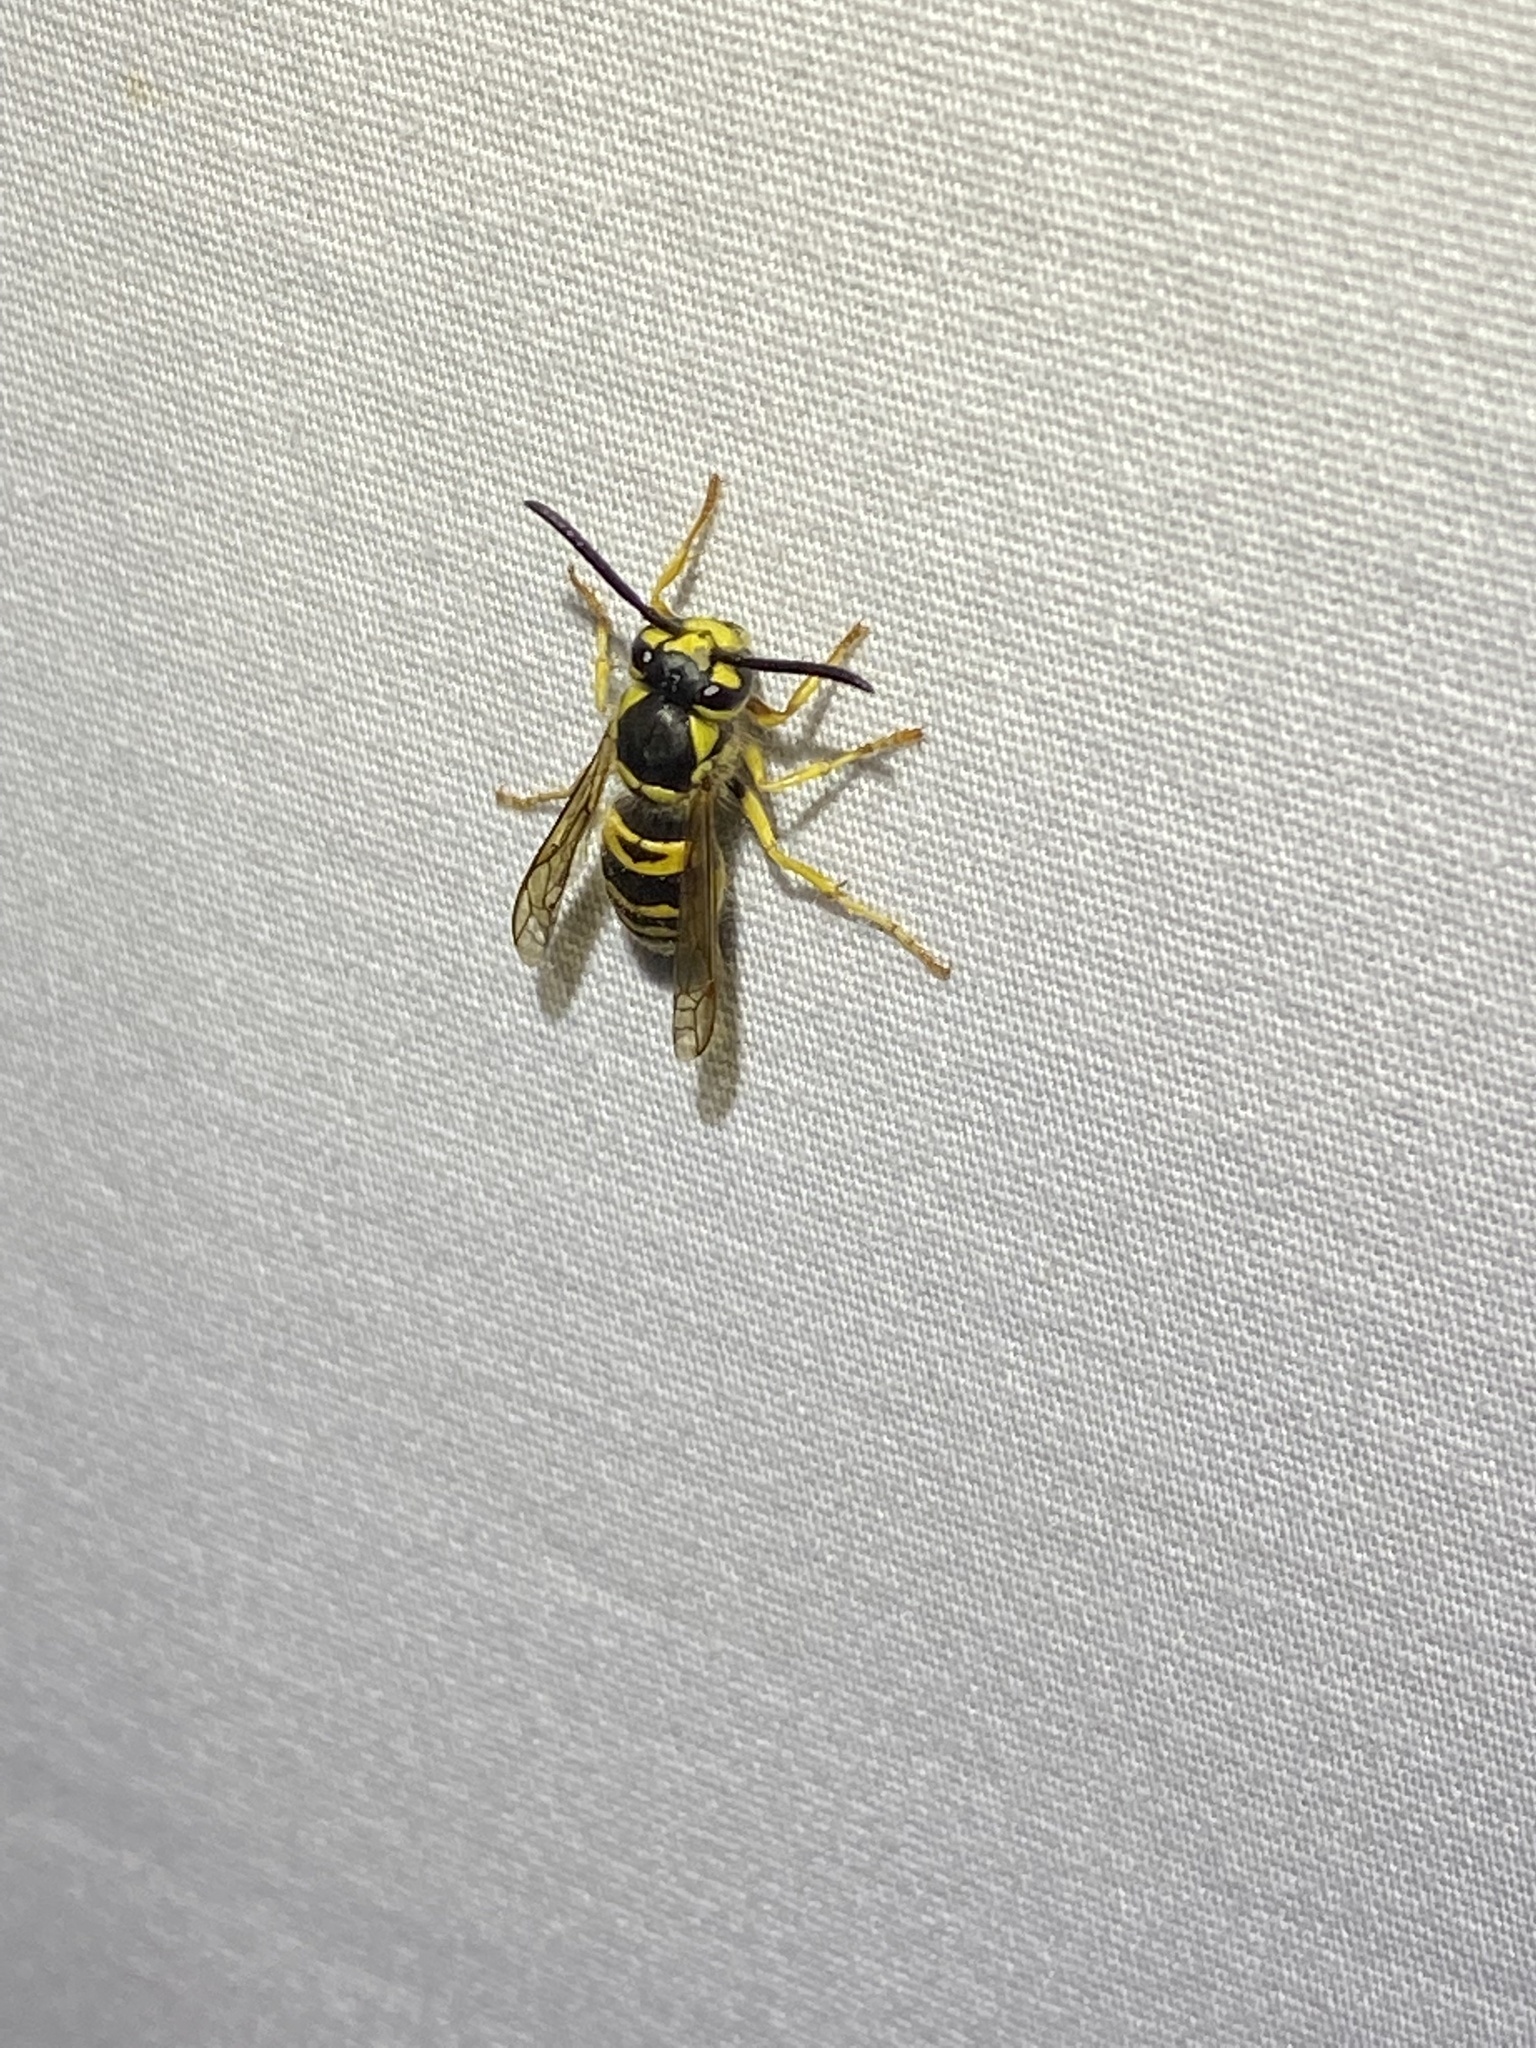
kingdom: Animalia
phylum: Arthropoda
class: Insecta
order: Hymenoptera
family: Vespidae
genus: Vespula
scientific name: Vespula maculifrons
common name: Eastern yellowjacket
